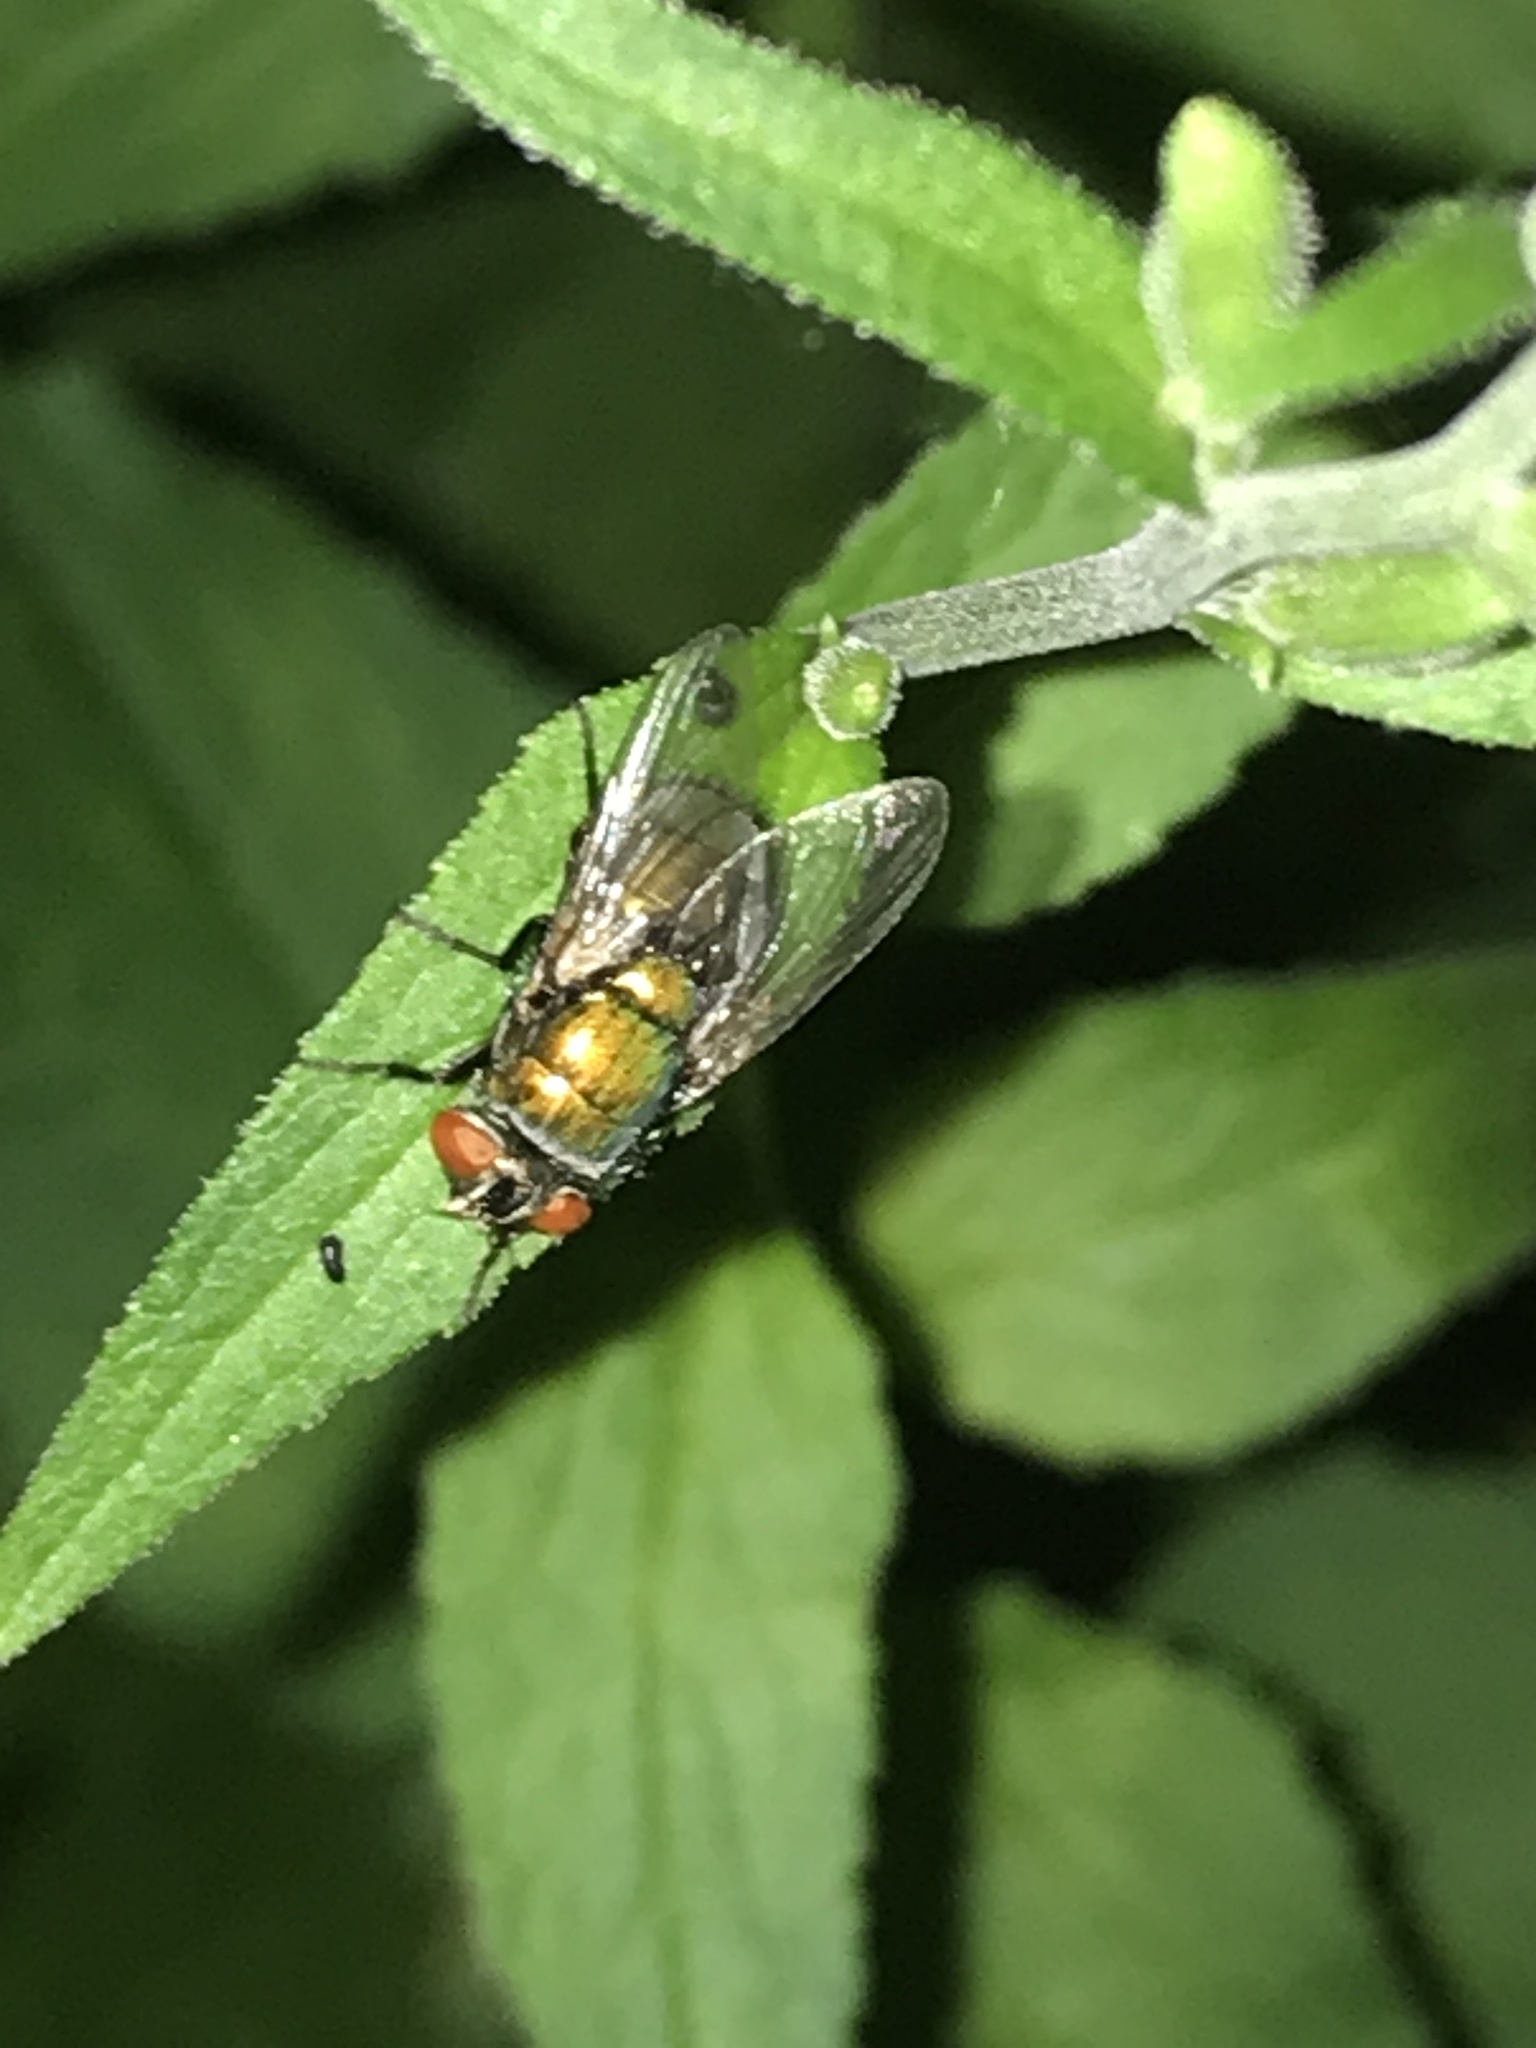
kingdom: Animalia
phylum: Arthropoda
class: Insecta
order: Diptera
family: Calliphoridae
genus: Lucilia
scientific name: Lucilia sericata
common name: Blow fly
